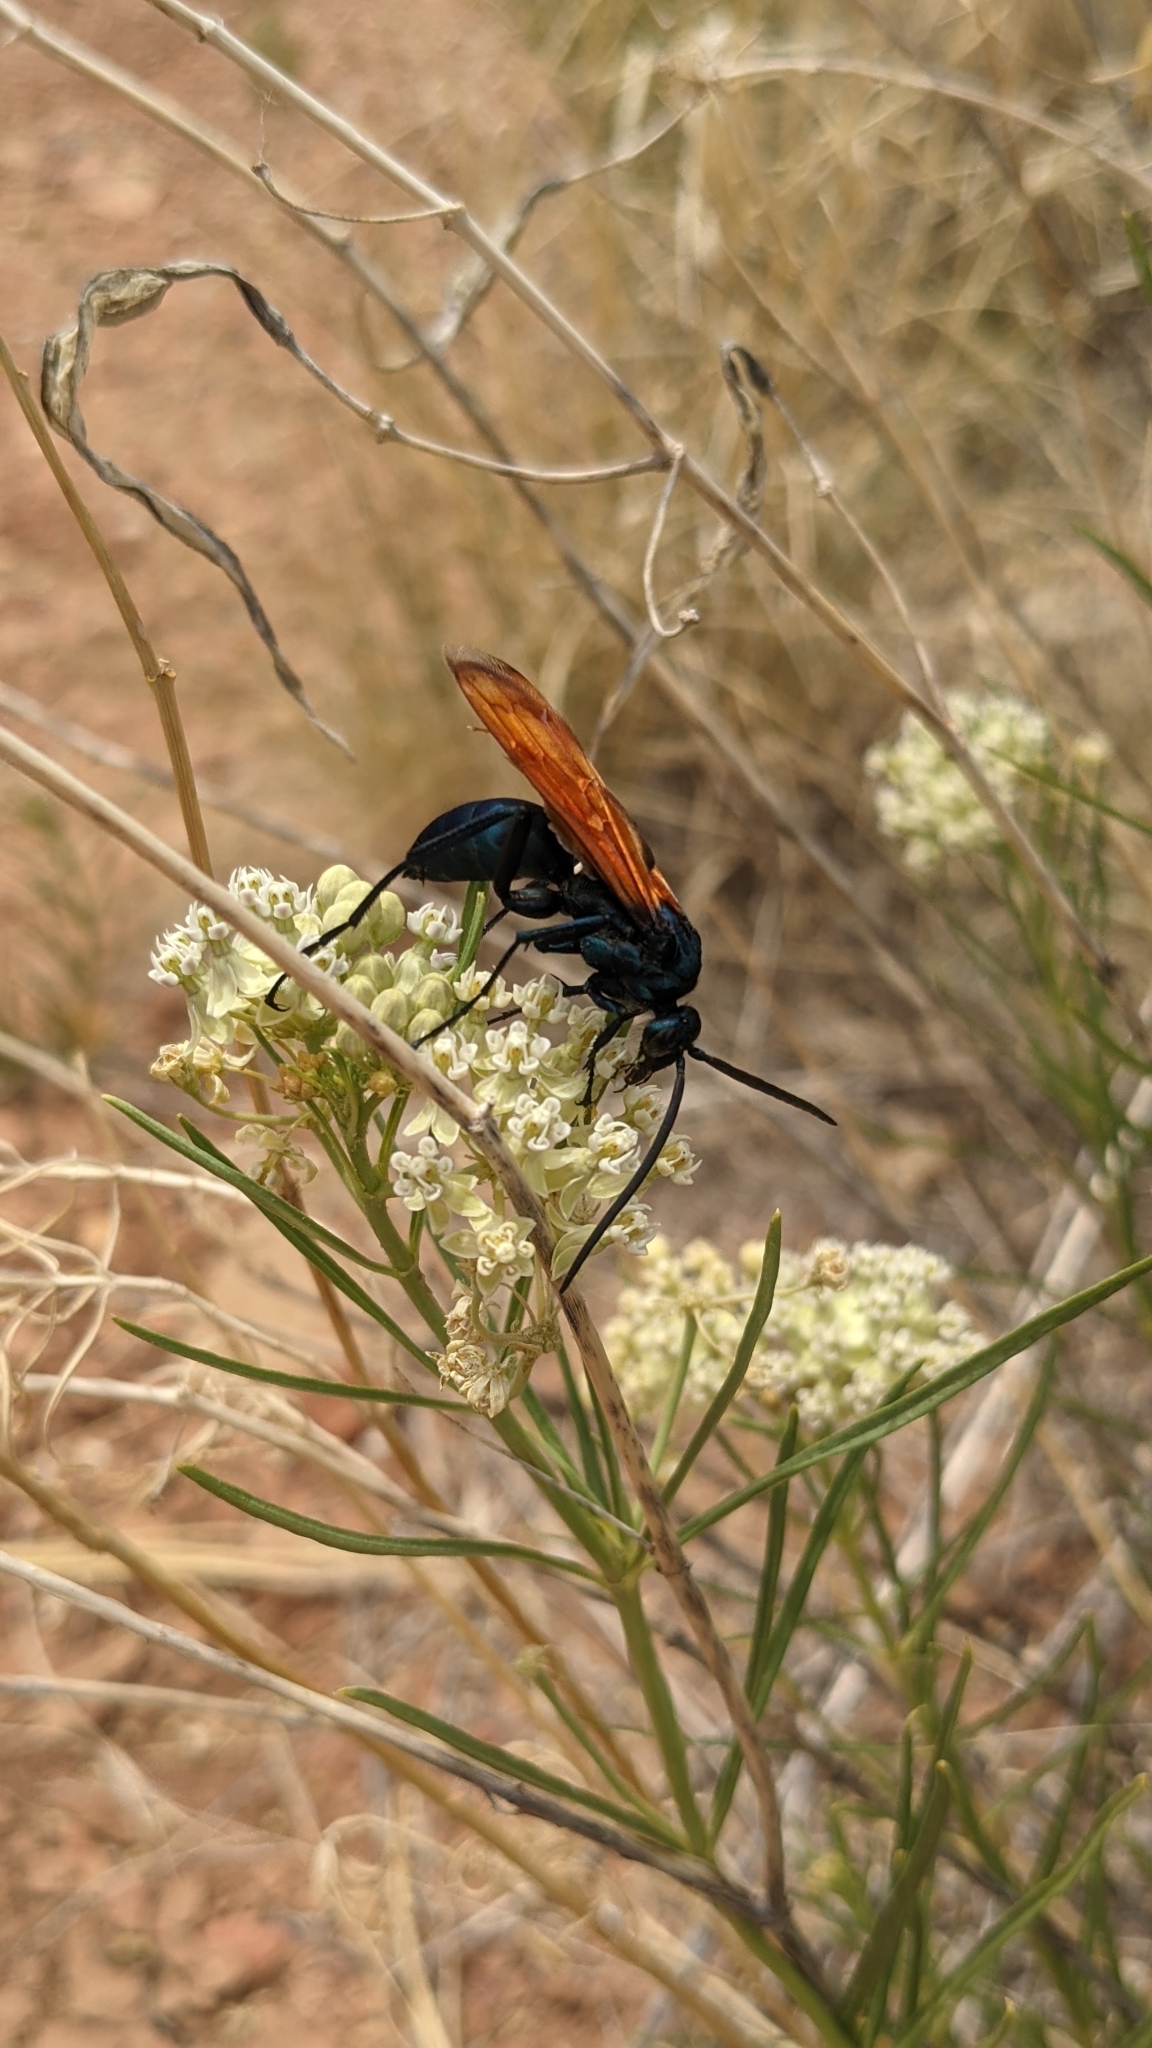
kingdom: Animalia
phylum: Arthropoda
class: Insecta
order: Hymenoptera
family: Pompilidae
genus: Pepsis
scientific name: Pepsis thisbe
